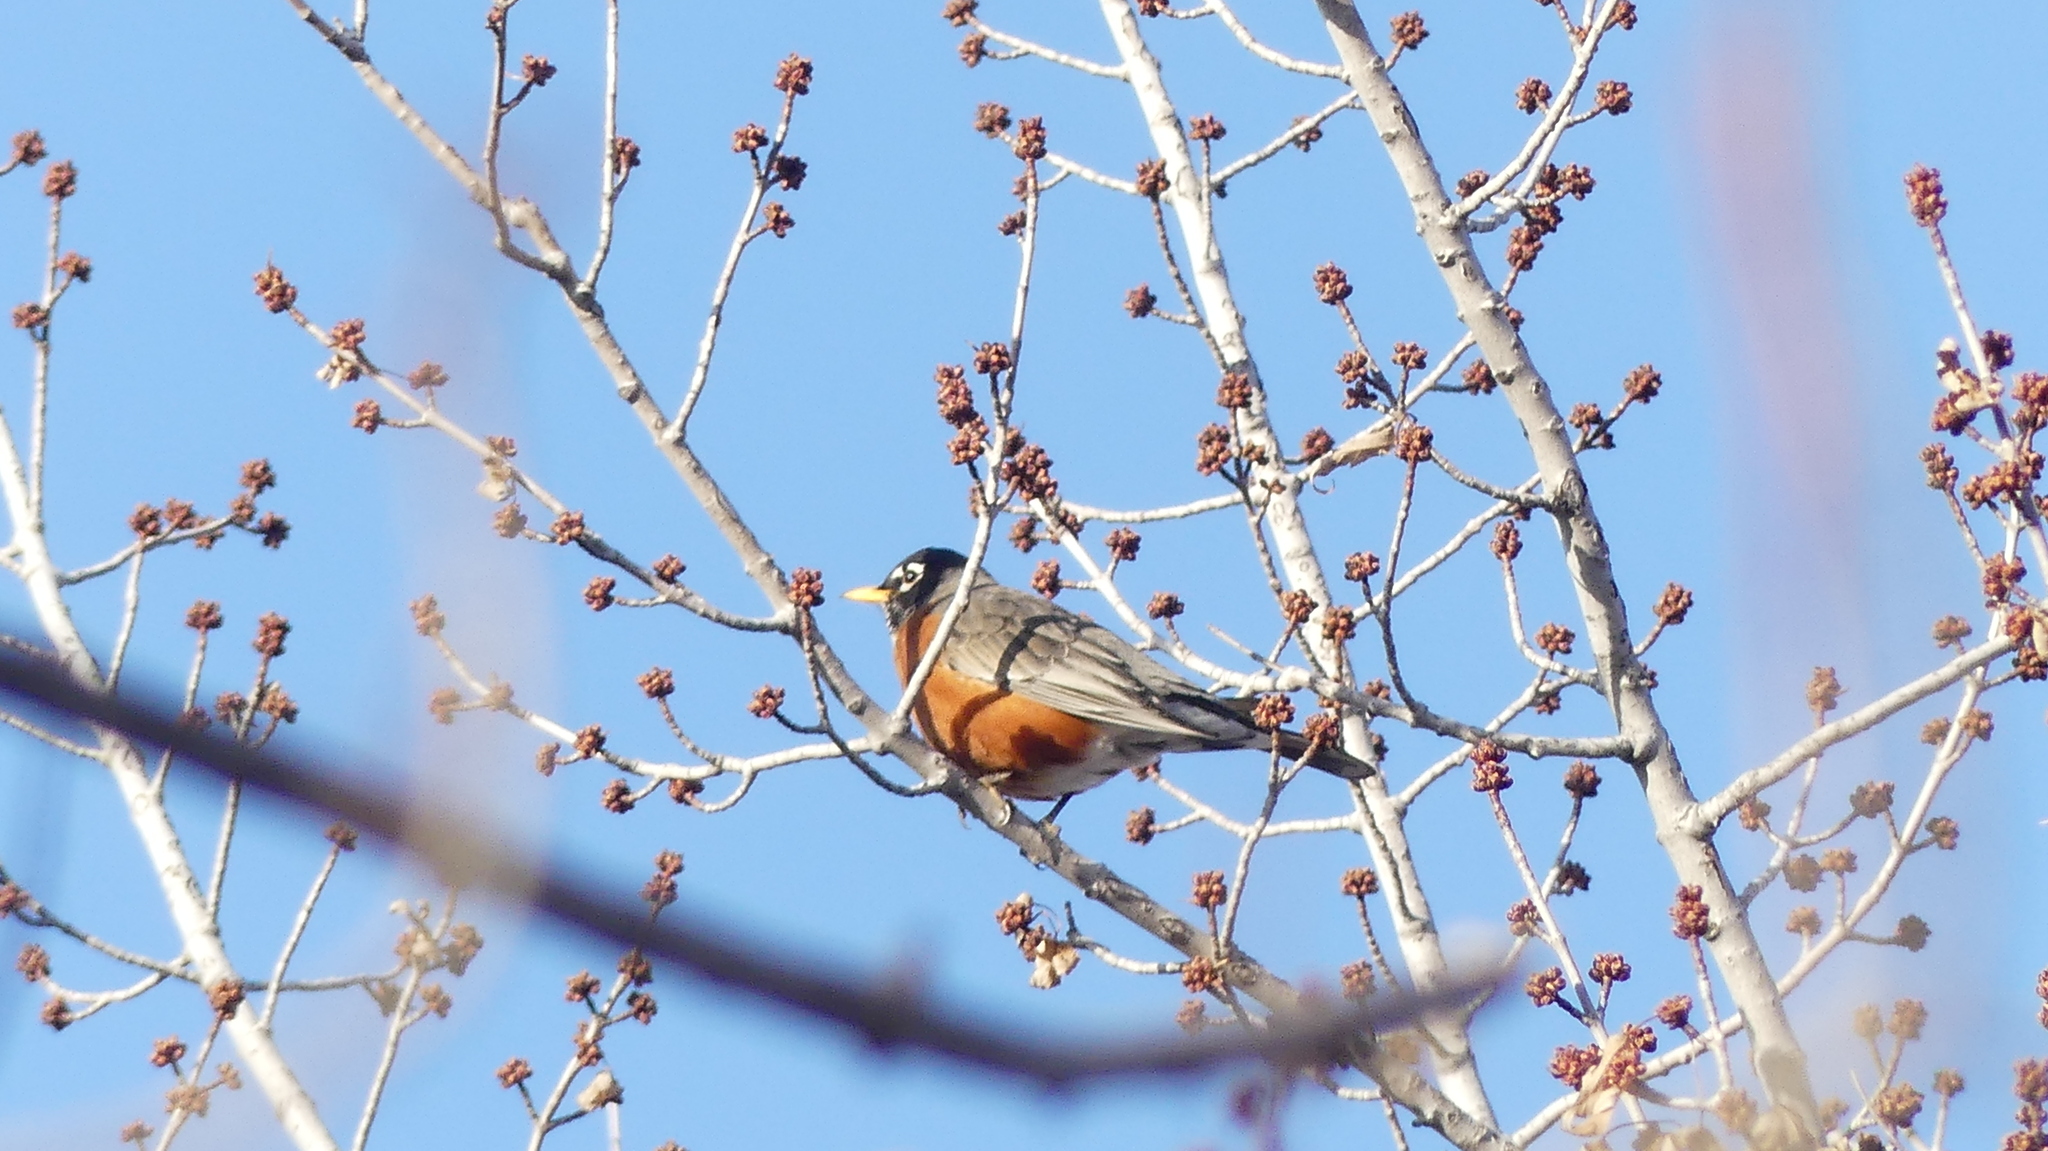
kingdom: Animalia
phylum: Chordata
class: Aves
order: Passeriformes
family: Turdidae
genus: Turdus
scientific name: Turdus migratorius
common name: American robin
